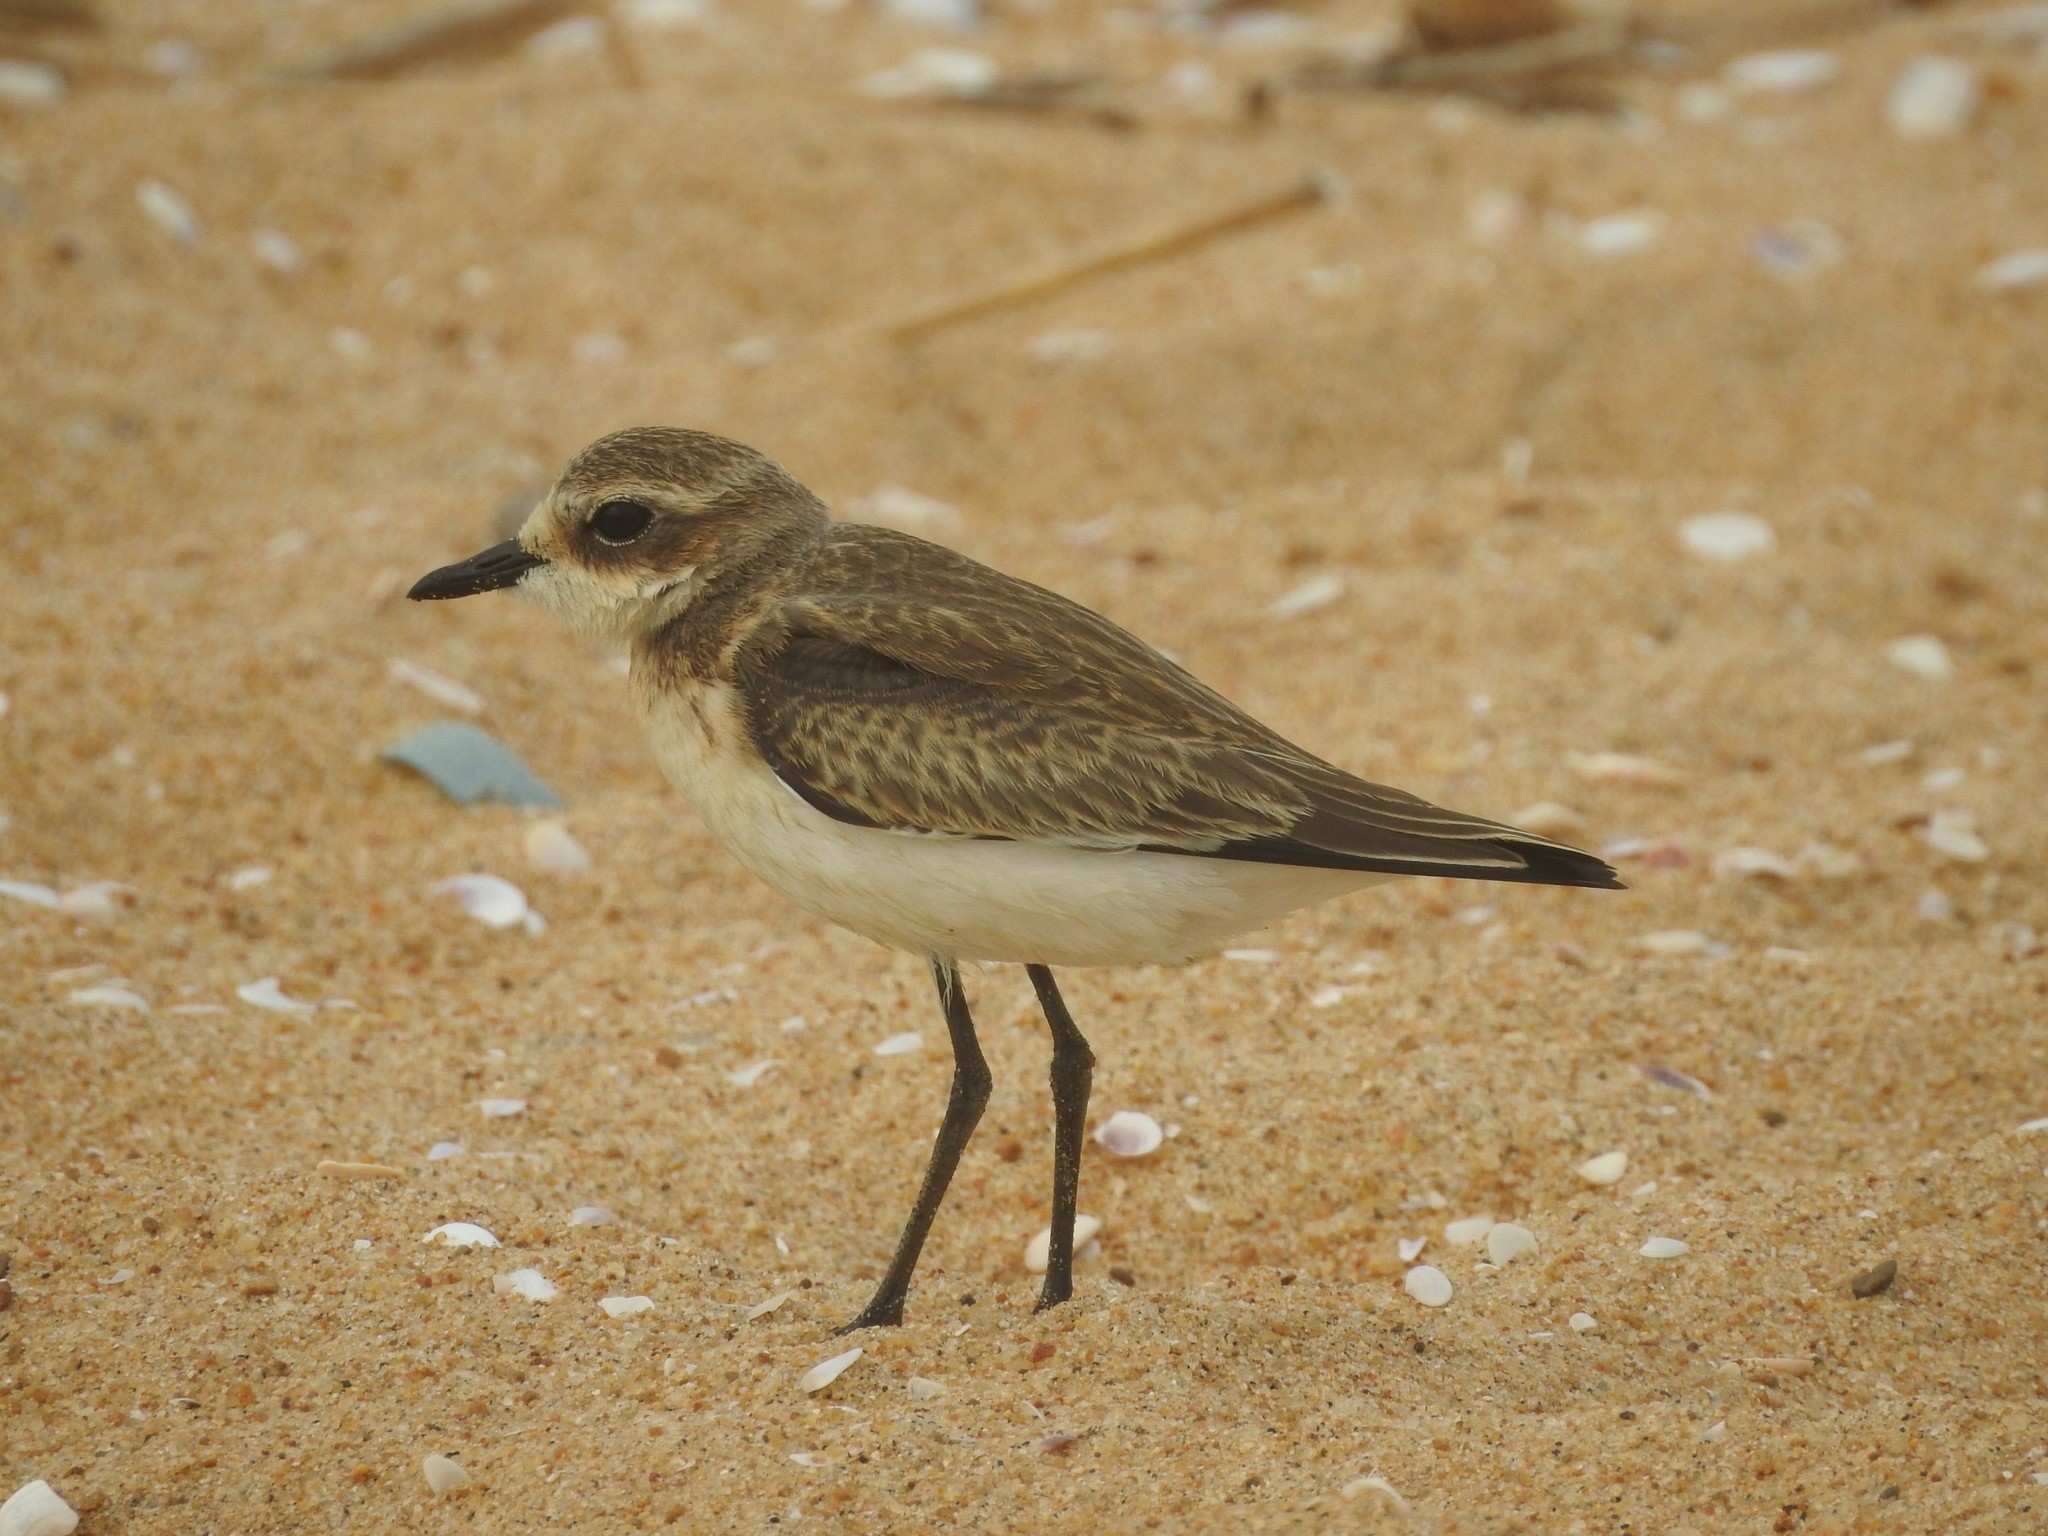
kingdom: Animalia
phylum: Chordata
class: Aves
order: Charadriiformes
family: Charadriidae
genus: Anarhynchus
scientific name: Anarhynchus
